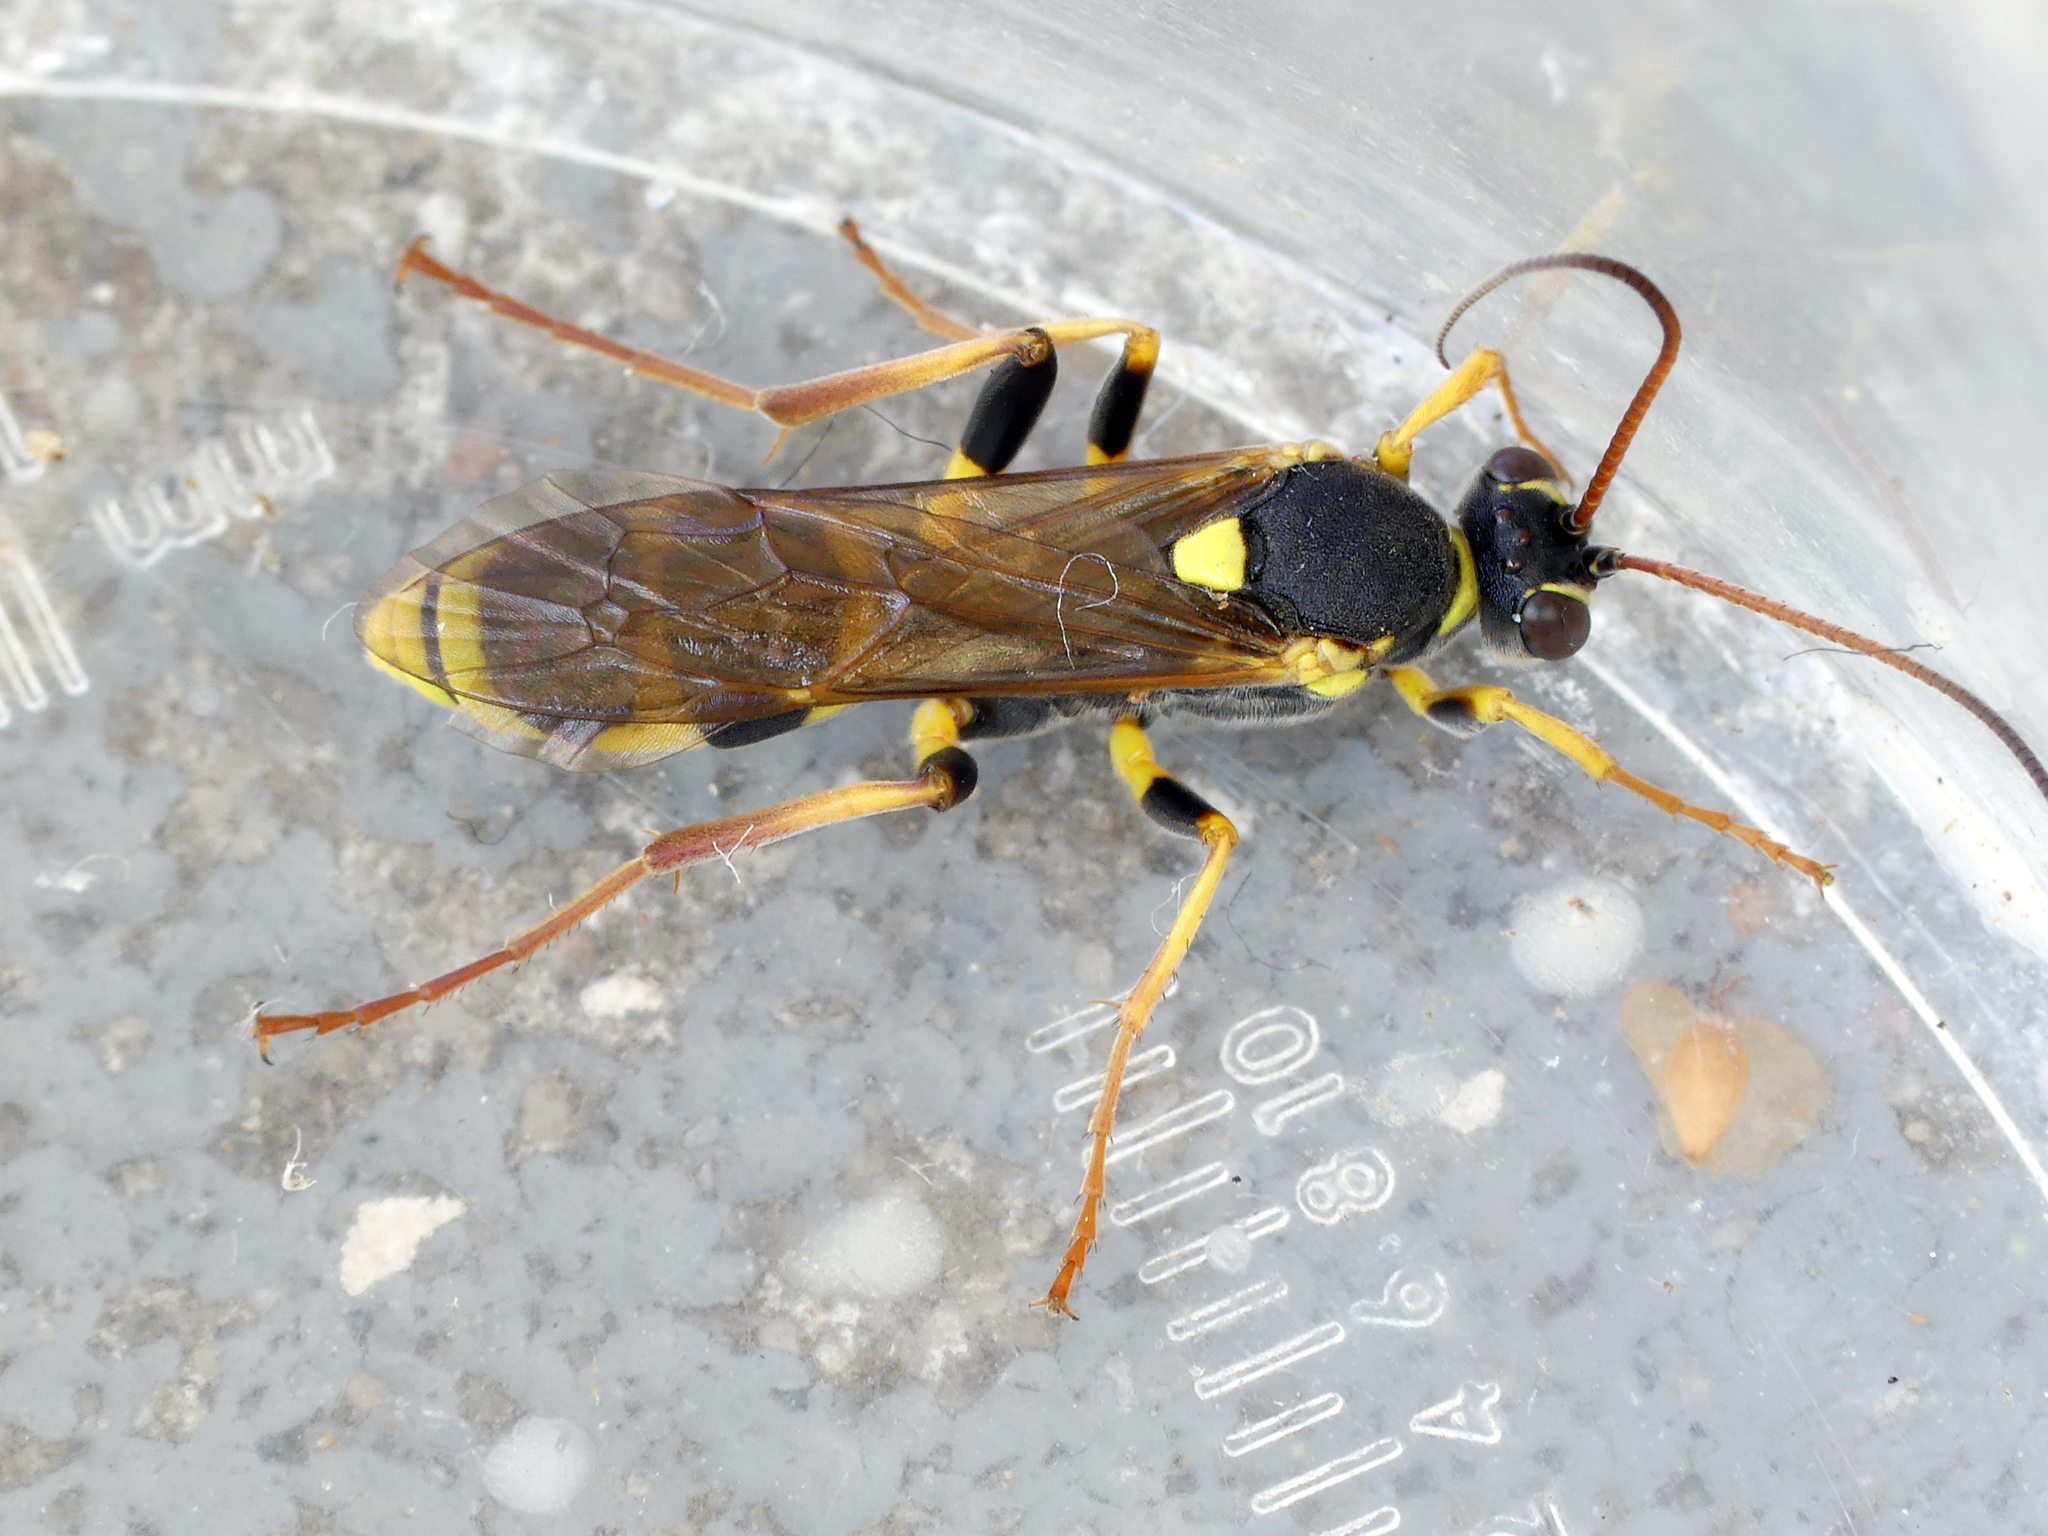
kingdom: Animalia
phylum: Arthropoda
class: Insecta
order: Hymenoptera
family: Ichneumonidae
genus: Amblyteles
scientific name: Amblyteles armatorius
